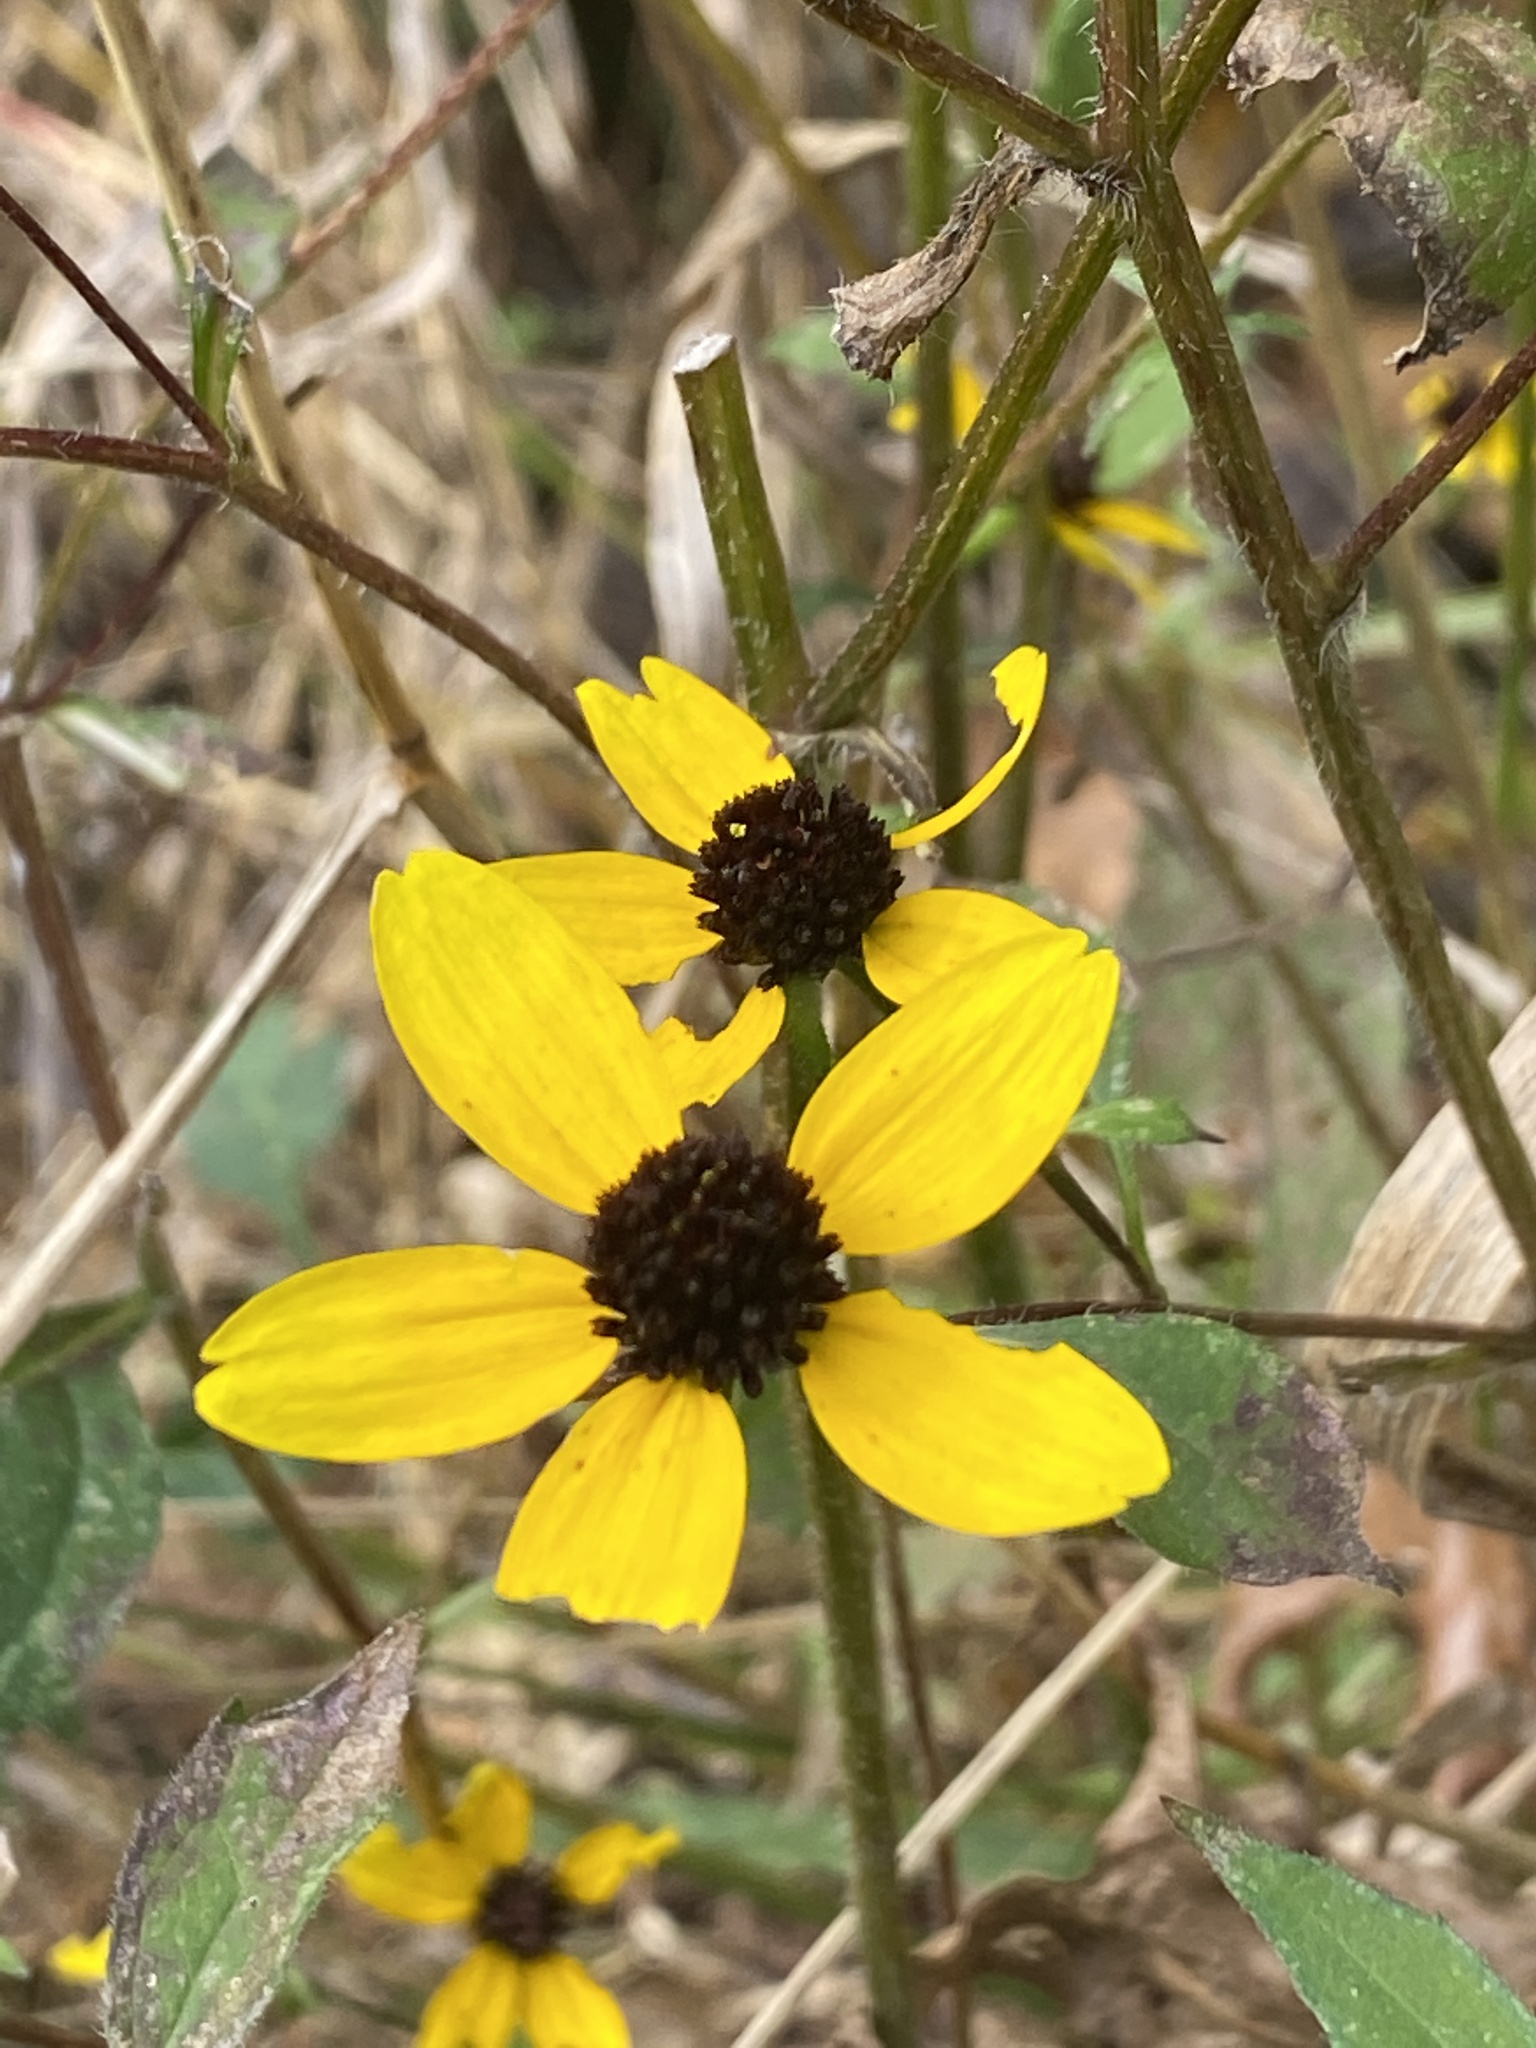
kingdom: Plantae
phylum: Tracheophyta
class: Magnoliopsida
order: Asterales
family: Asteraceae
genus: Rudbeckia
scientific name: Rudbeckia triloba
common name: Thin-leaved coneflower
